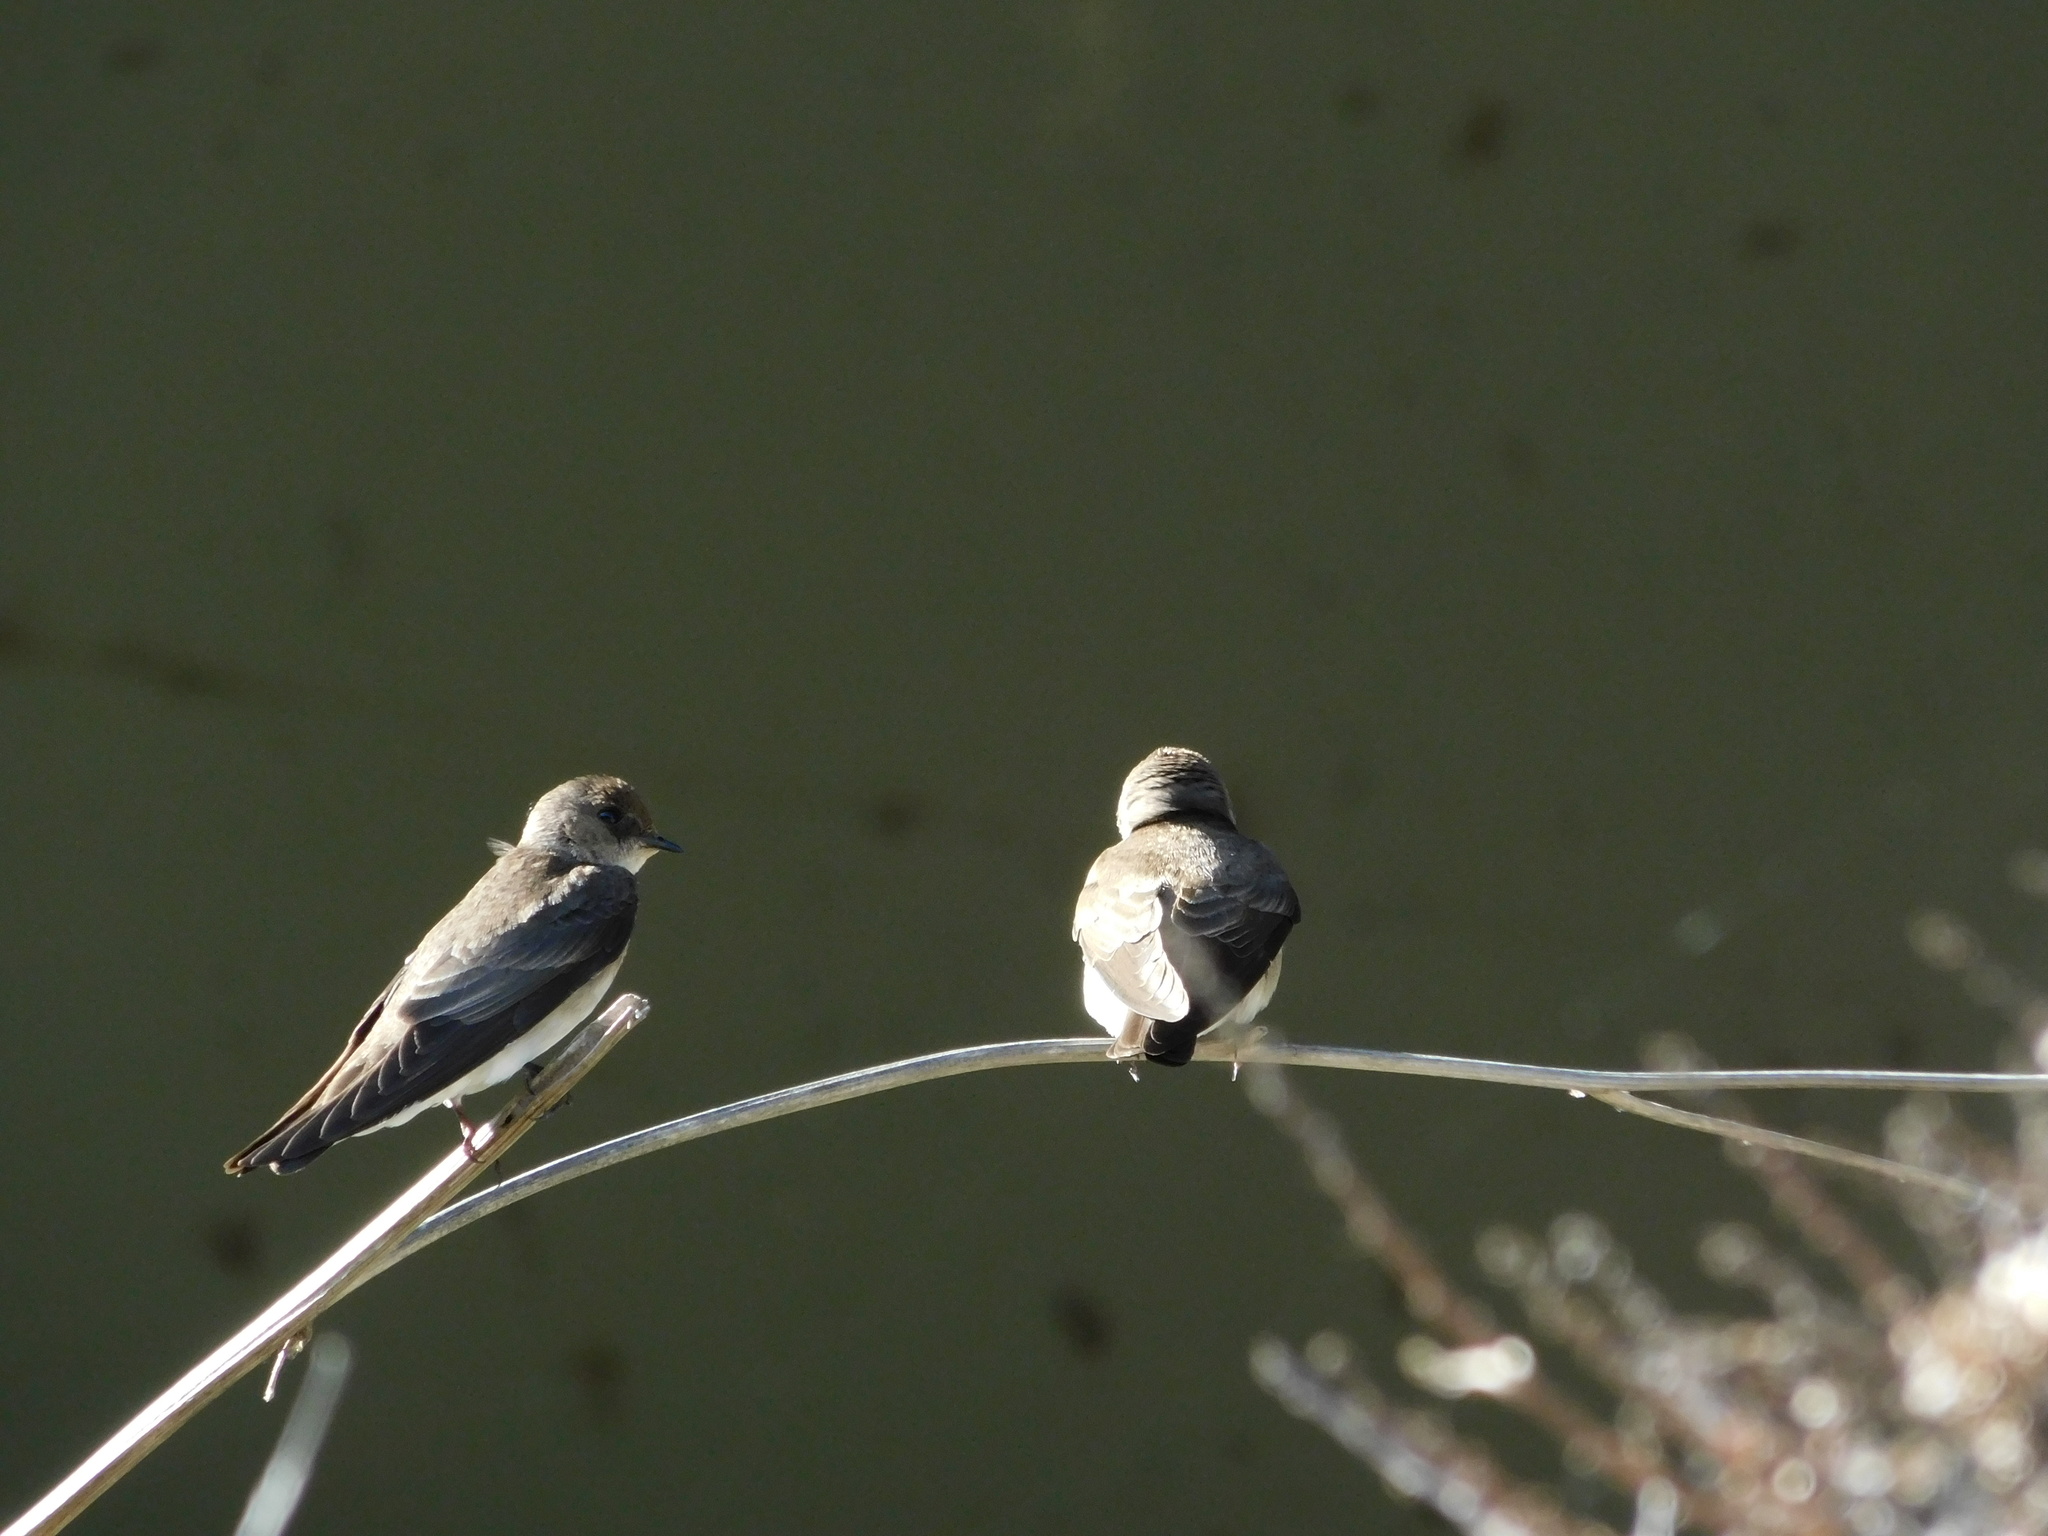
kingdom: Animalia
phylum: Chordata
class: Aves
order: Passeriformes
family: Hirundinidae
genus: Stelgidopteryx
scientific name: Stelgidopteryx serripennis
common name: Northern rough-winged swallow
